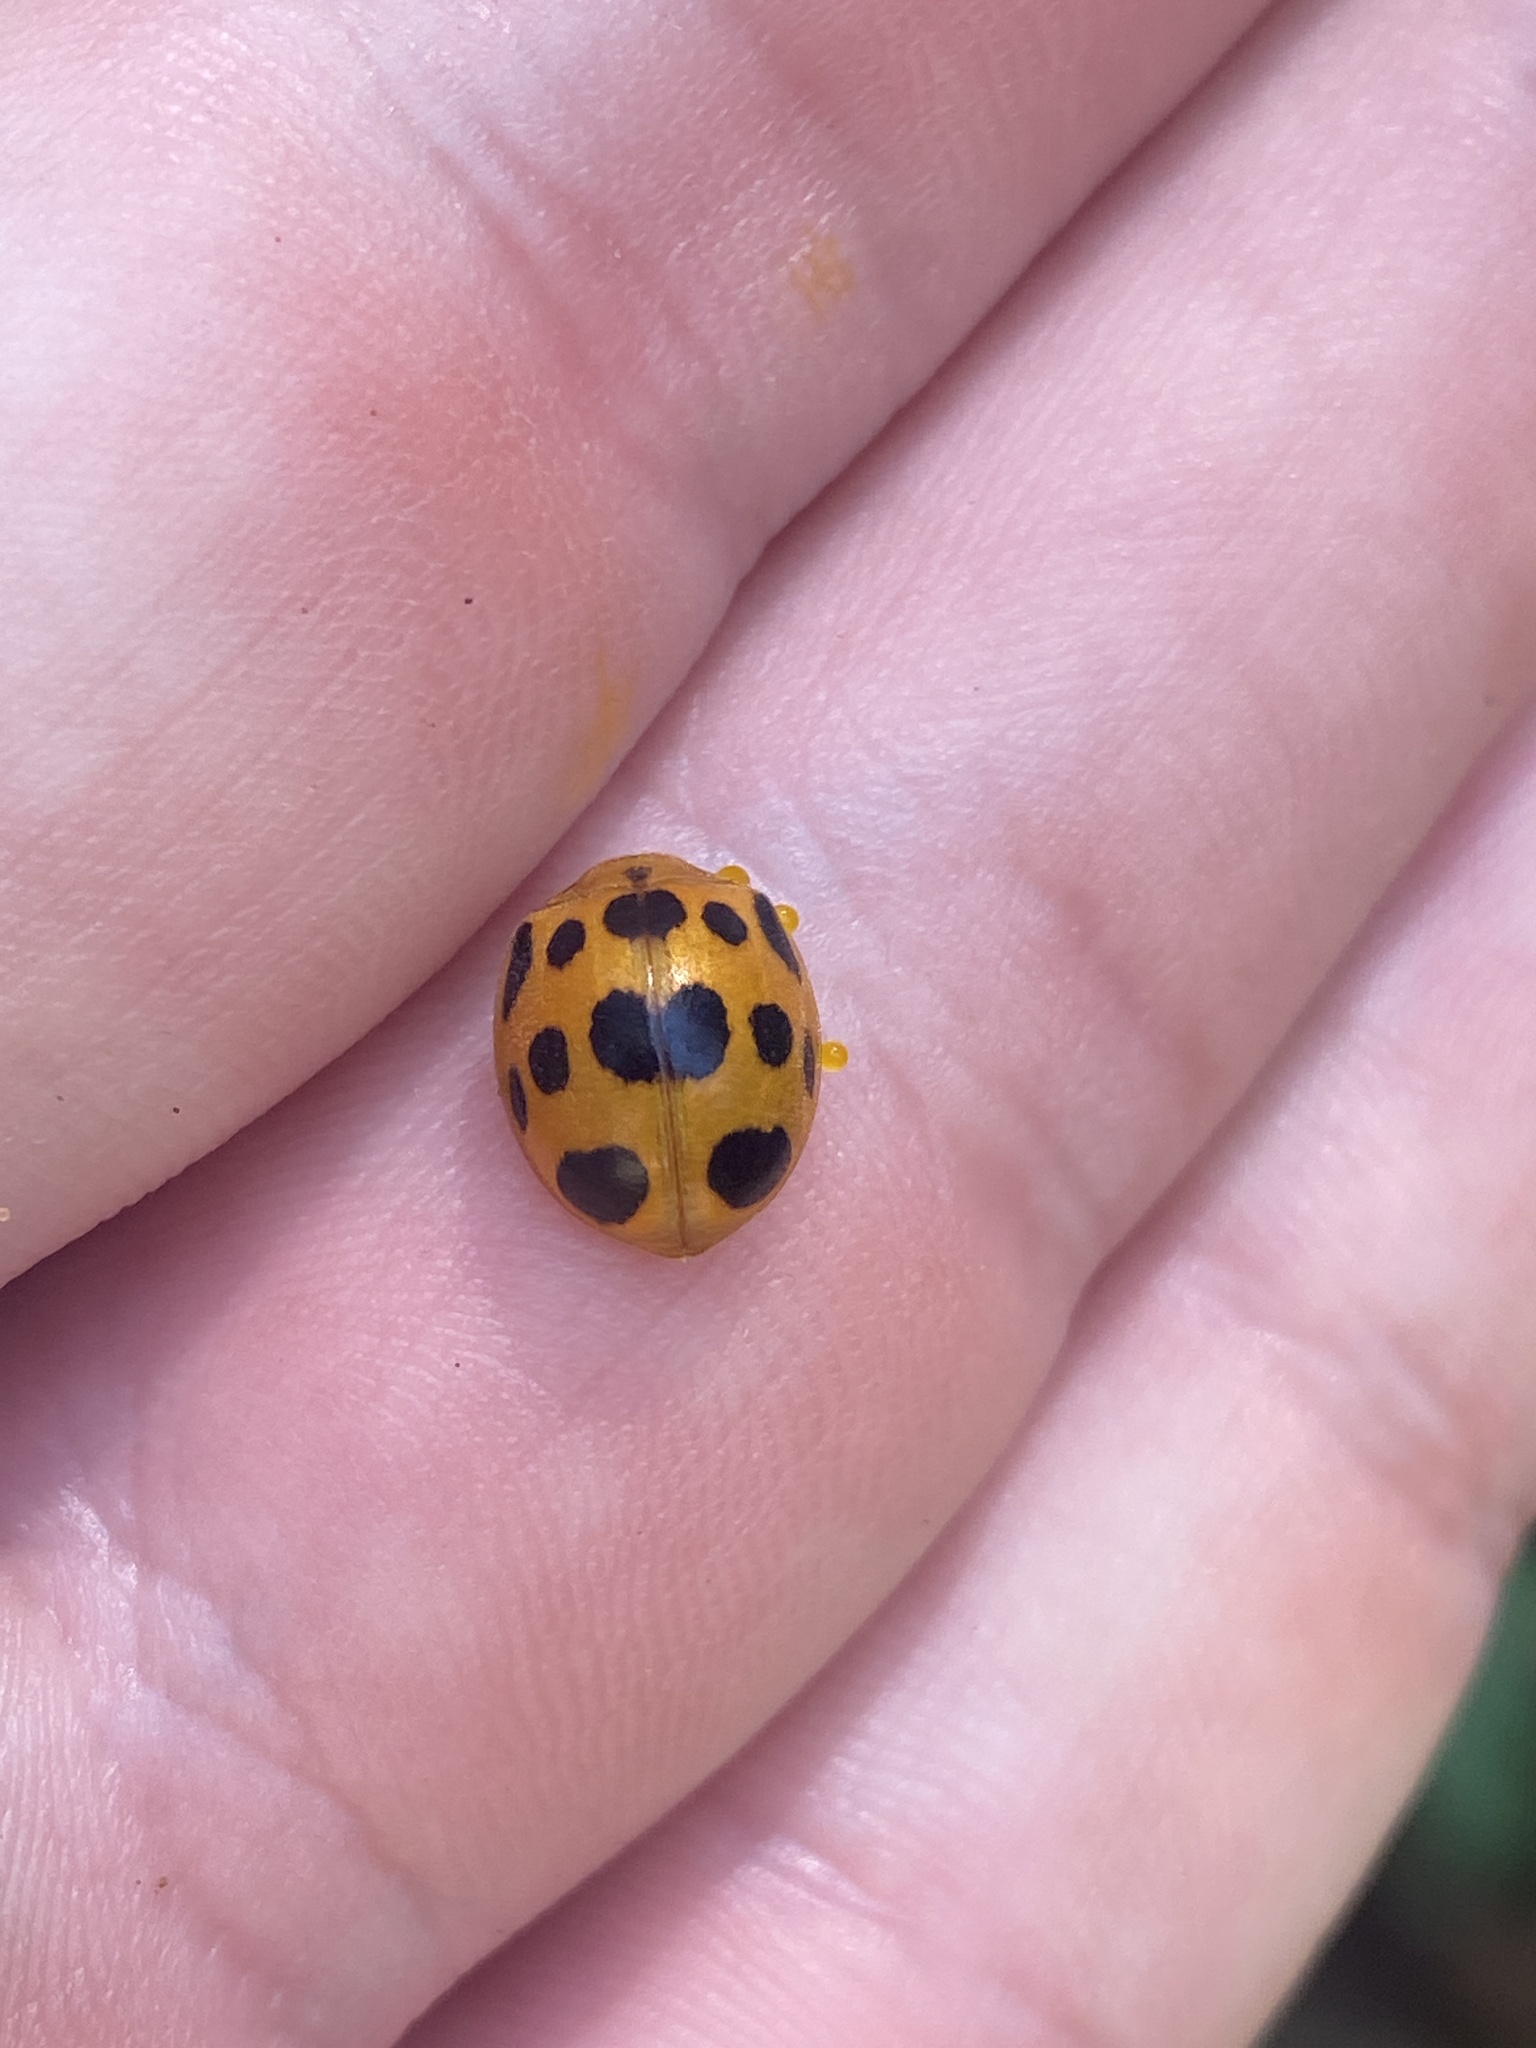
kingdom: Animalia
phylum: Arthropoda
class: Insecta
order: Coleoptera
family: Coccinellidae
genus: Epilachna
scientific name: Epilachna borealis
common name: Squash beetle
